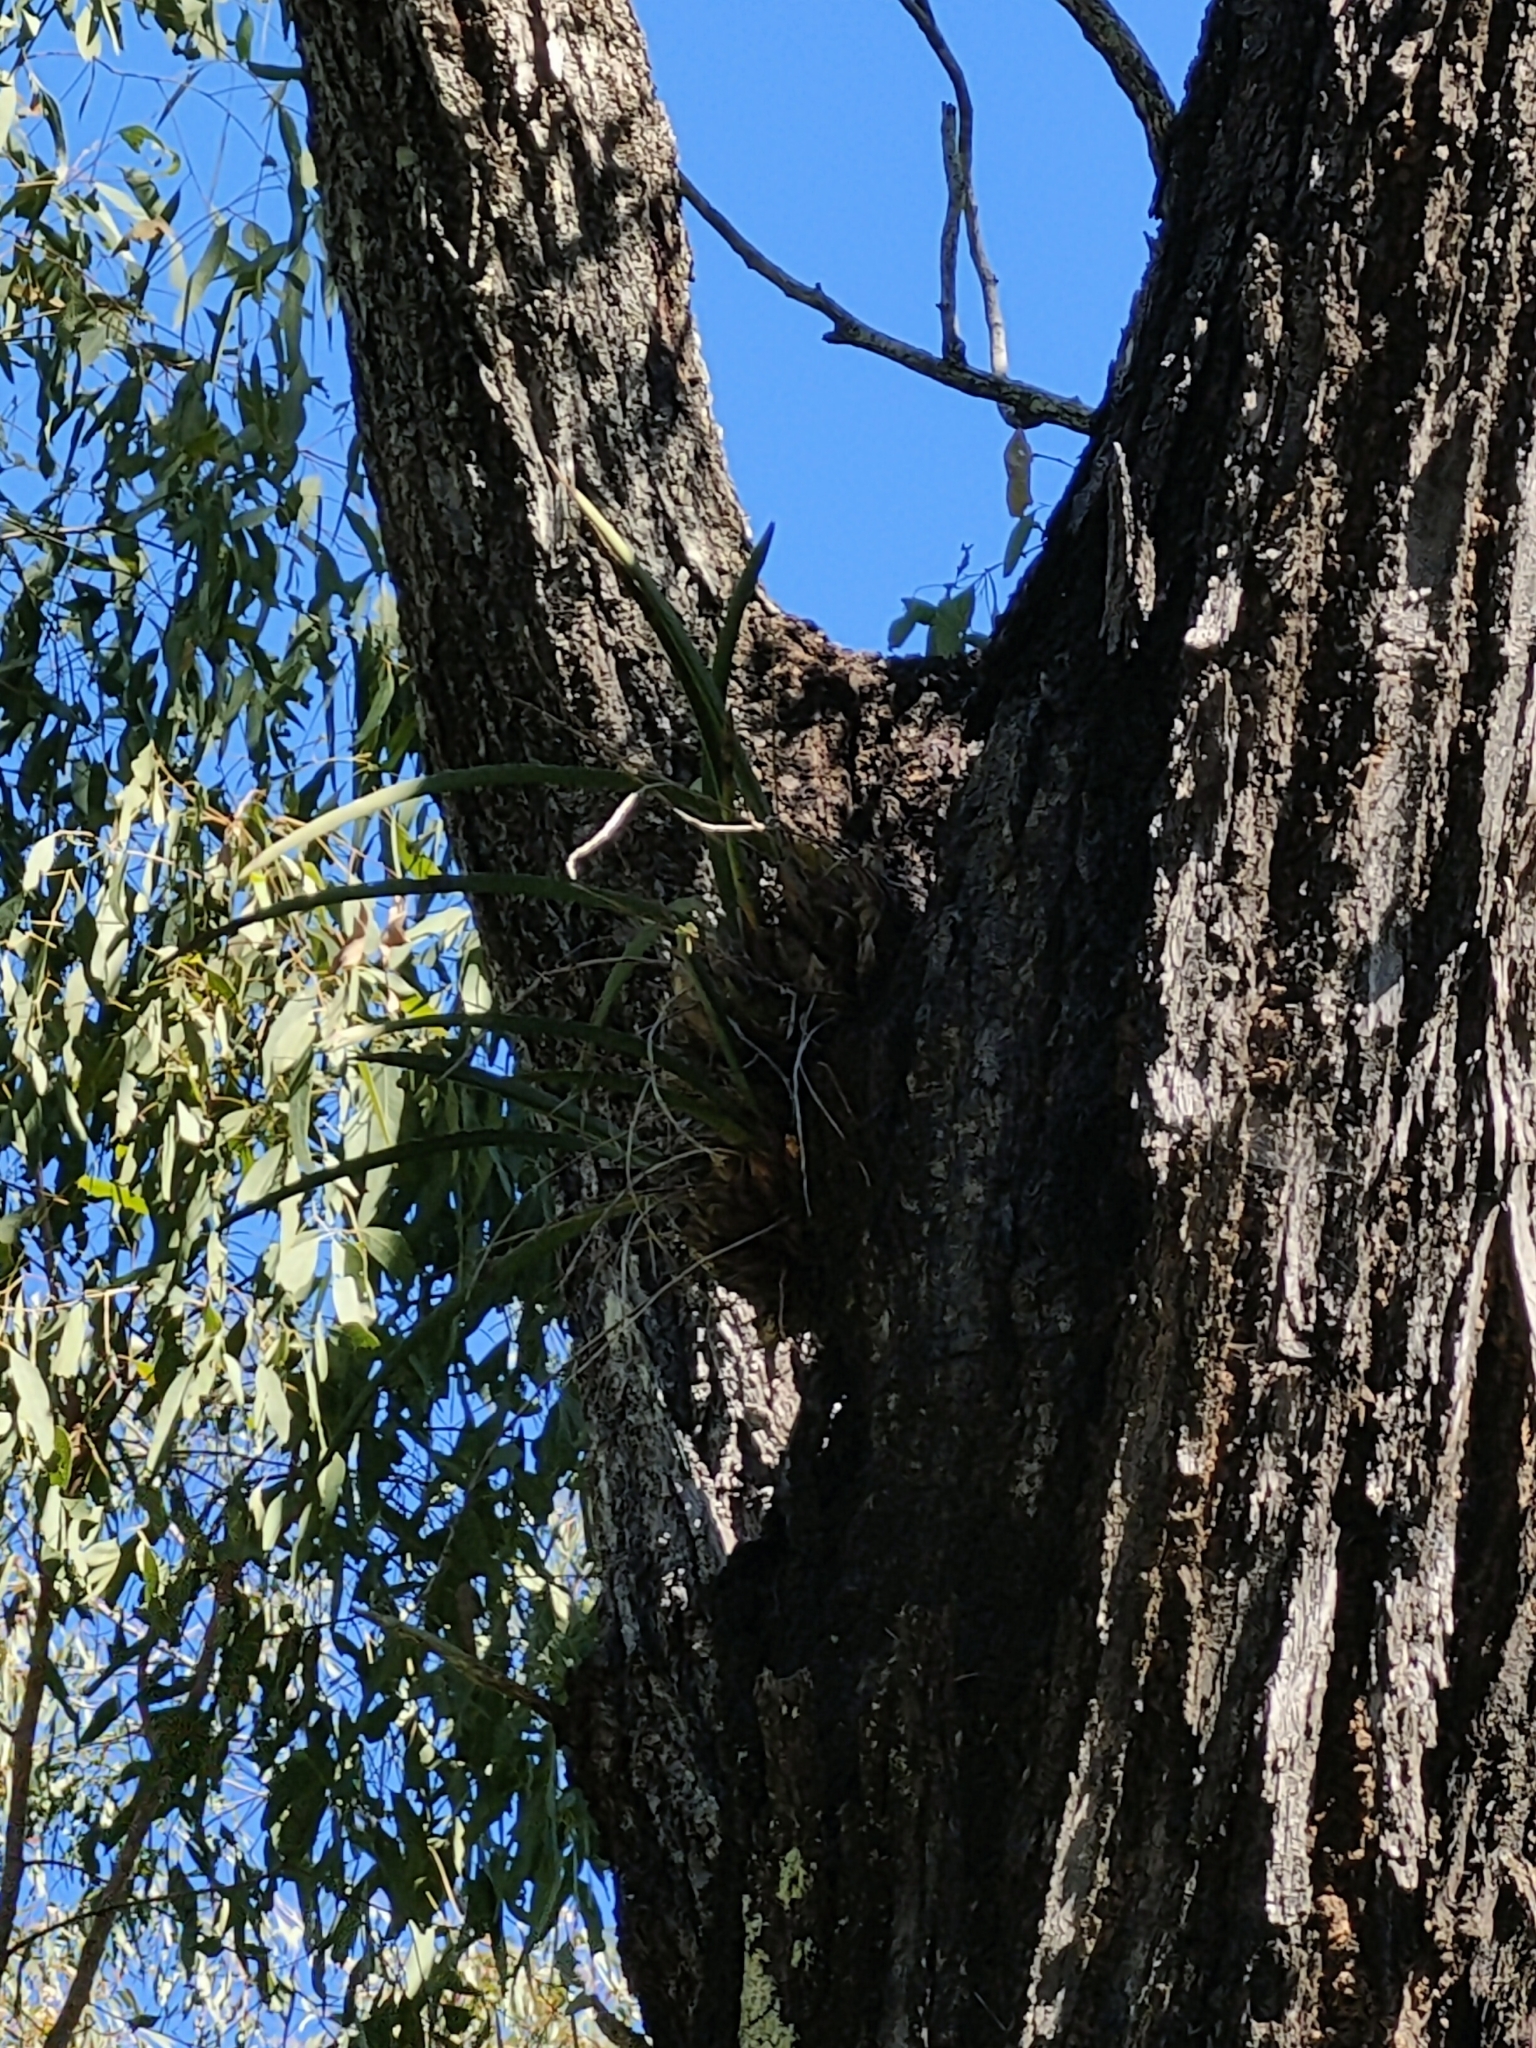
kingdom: Plantae
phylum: Tracheophyta
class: Liliopsida
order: Asparagales
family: Orchidaceae
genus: Cymbidium
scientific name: Cymbidium canaliculatum
